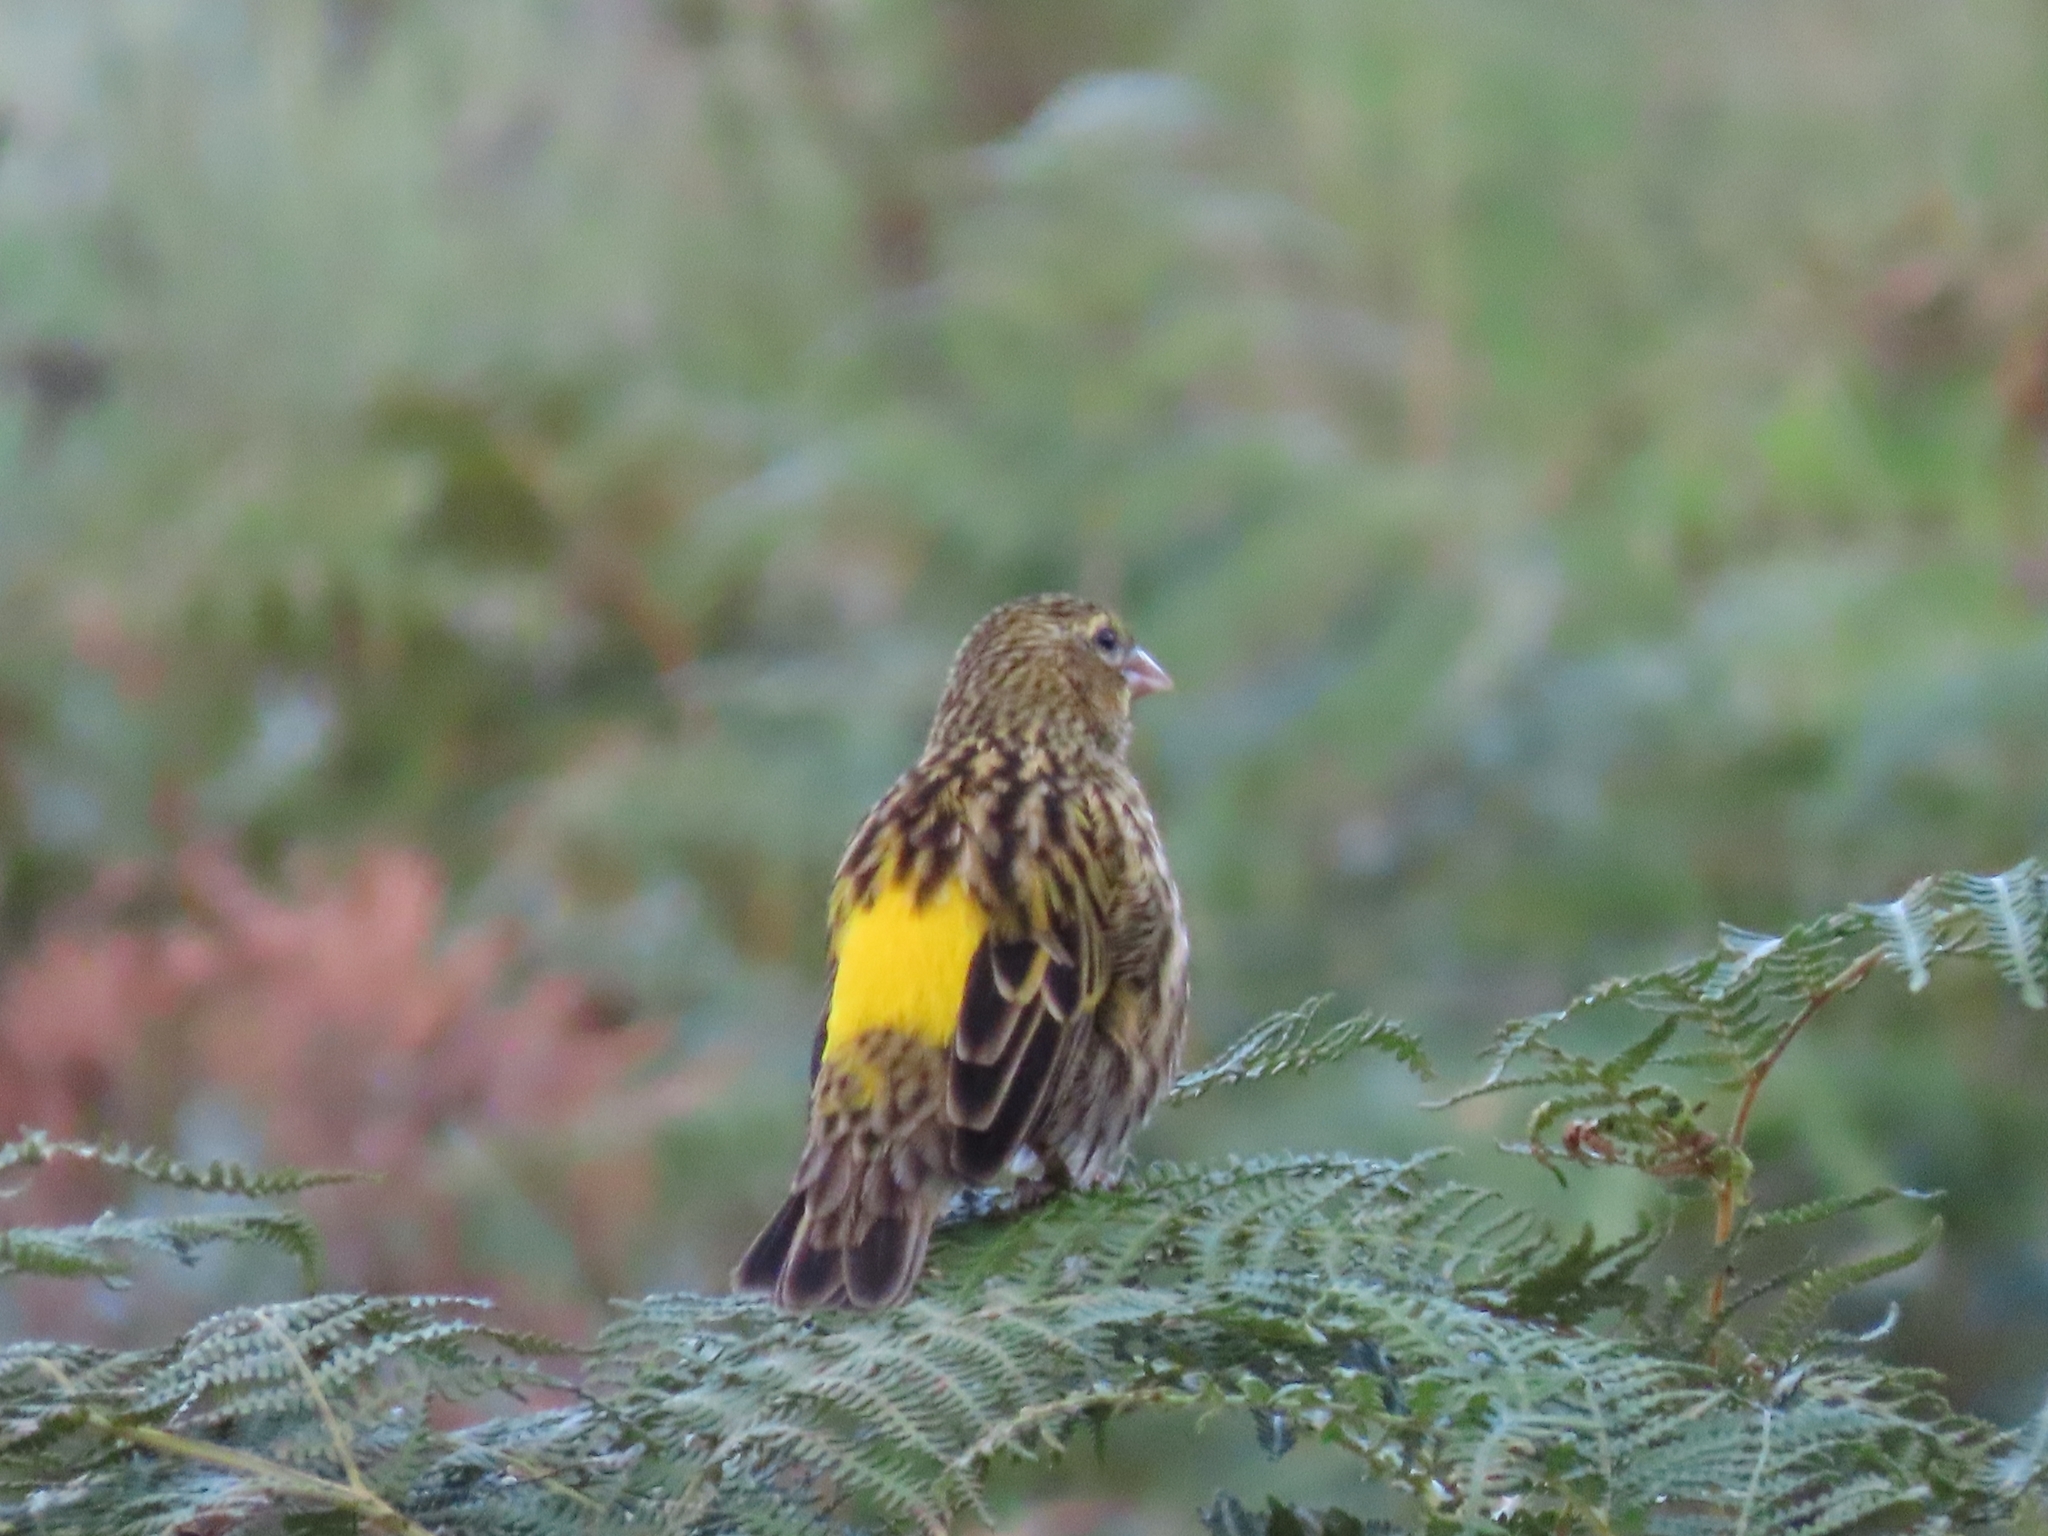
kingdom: Animalia
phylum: Chordata
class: Aves
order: Passeriformes
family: Ploceidae
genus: Euplectes
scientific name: Euplectes capensis
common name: Yellow bishop
